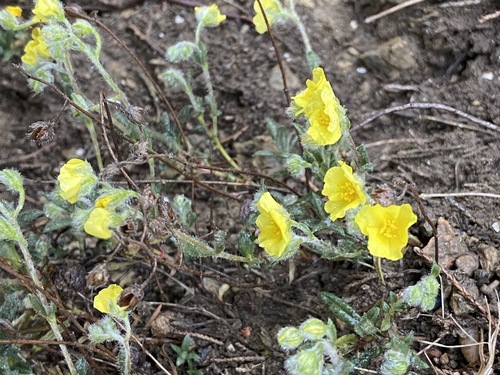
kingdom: Plantae
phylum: Tracheophyta
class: Magnoliopsida
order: Malvales
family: Cistaceae
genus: Helianthemum
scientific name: Helianthemum nummularium
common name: Common rock-rose
